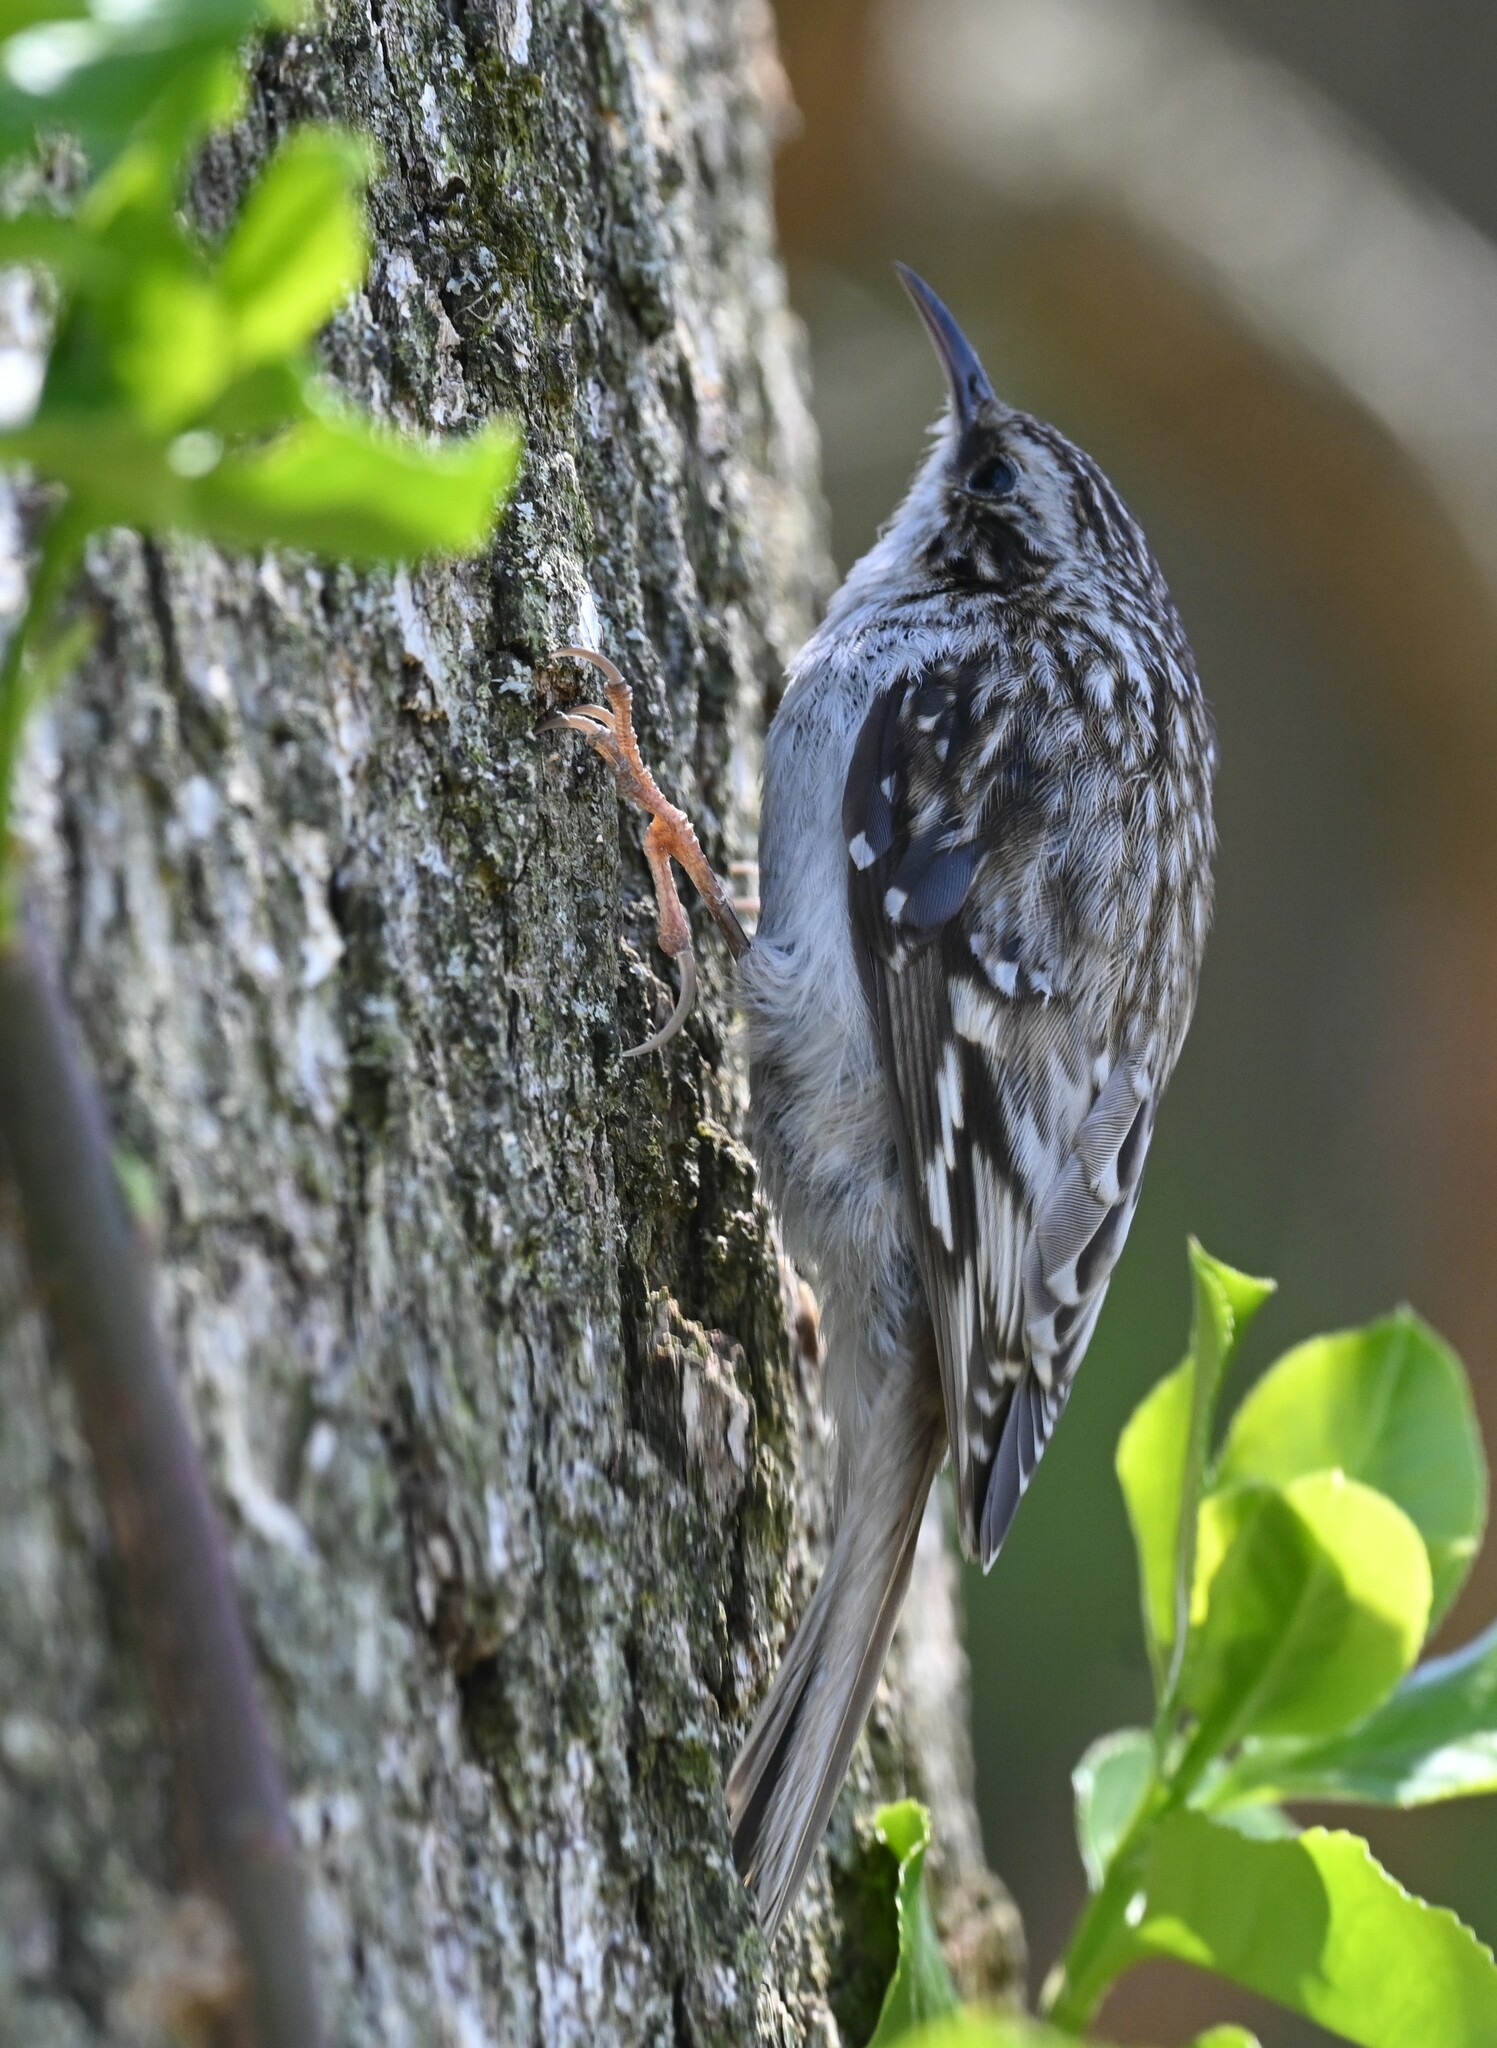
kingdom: Animalia
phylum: Chordata
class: Aves
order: Passeriformes
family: Certhiidae
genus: Certhia
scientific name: Certhia americana
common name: Brown creeper
